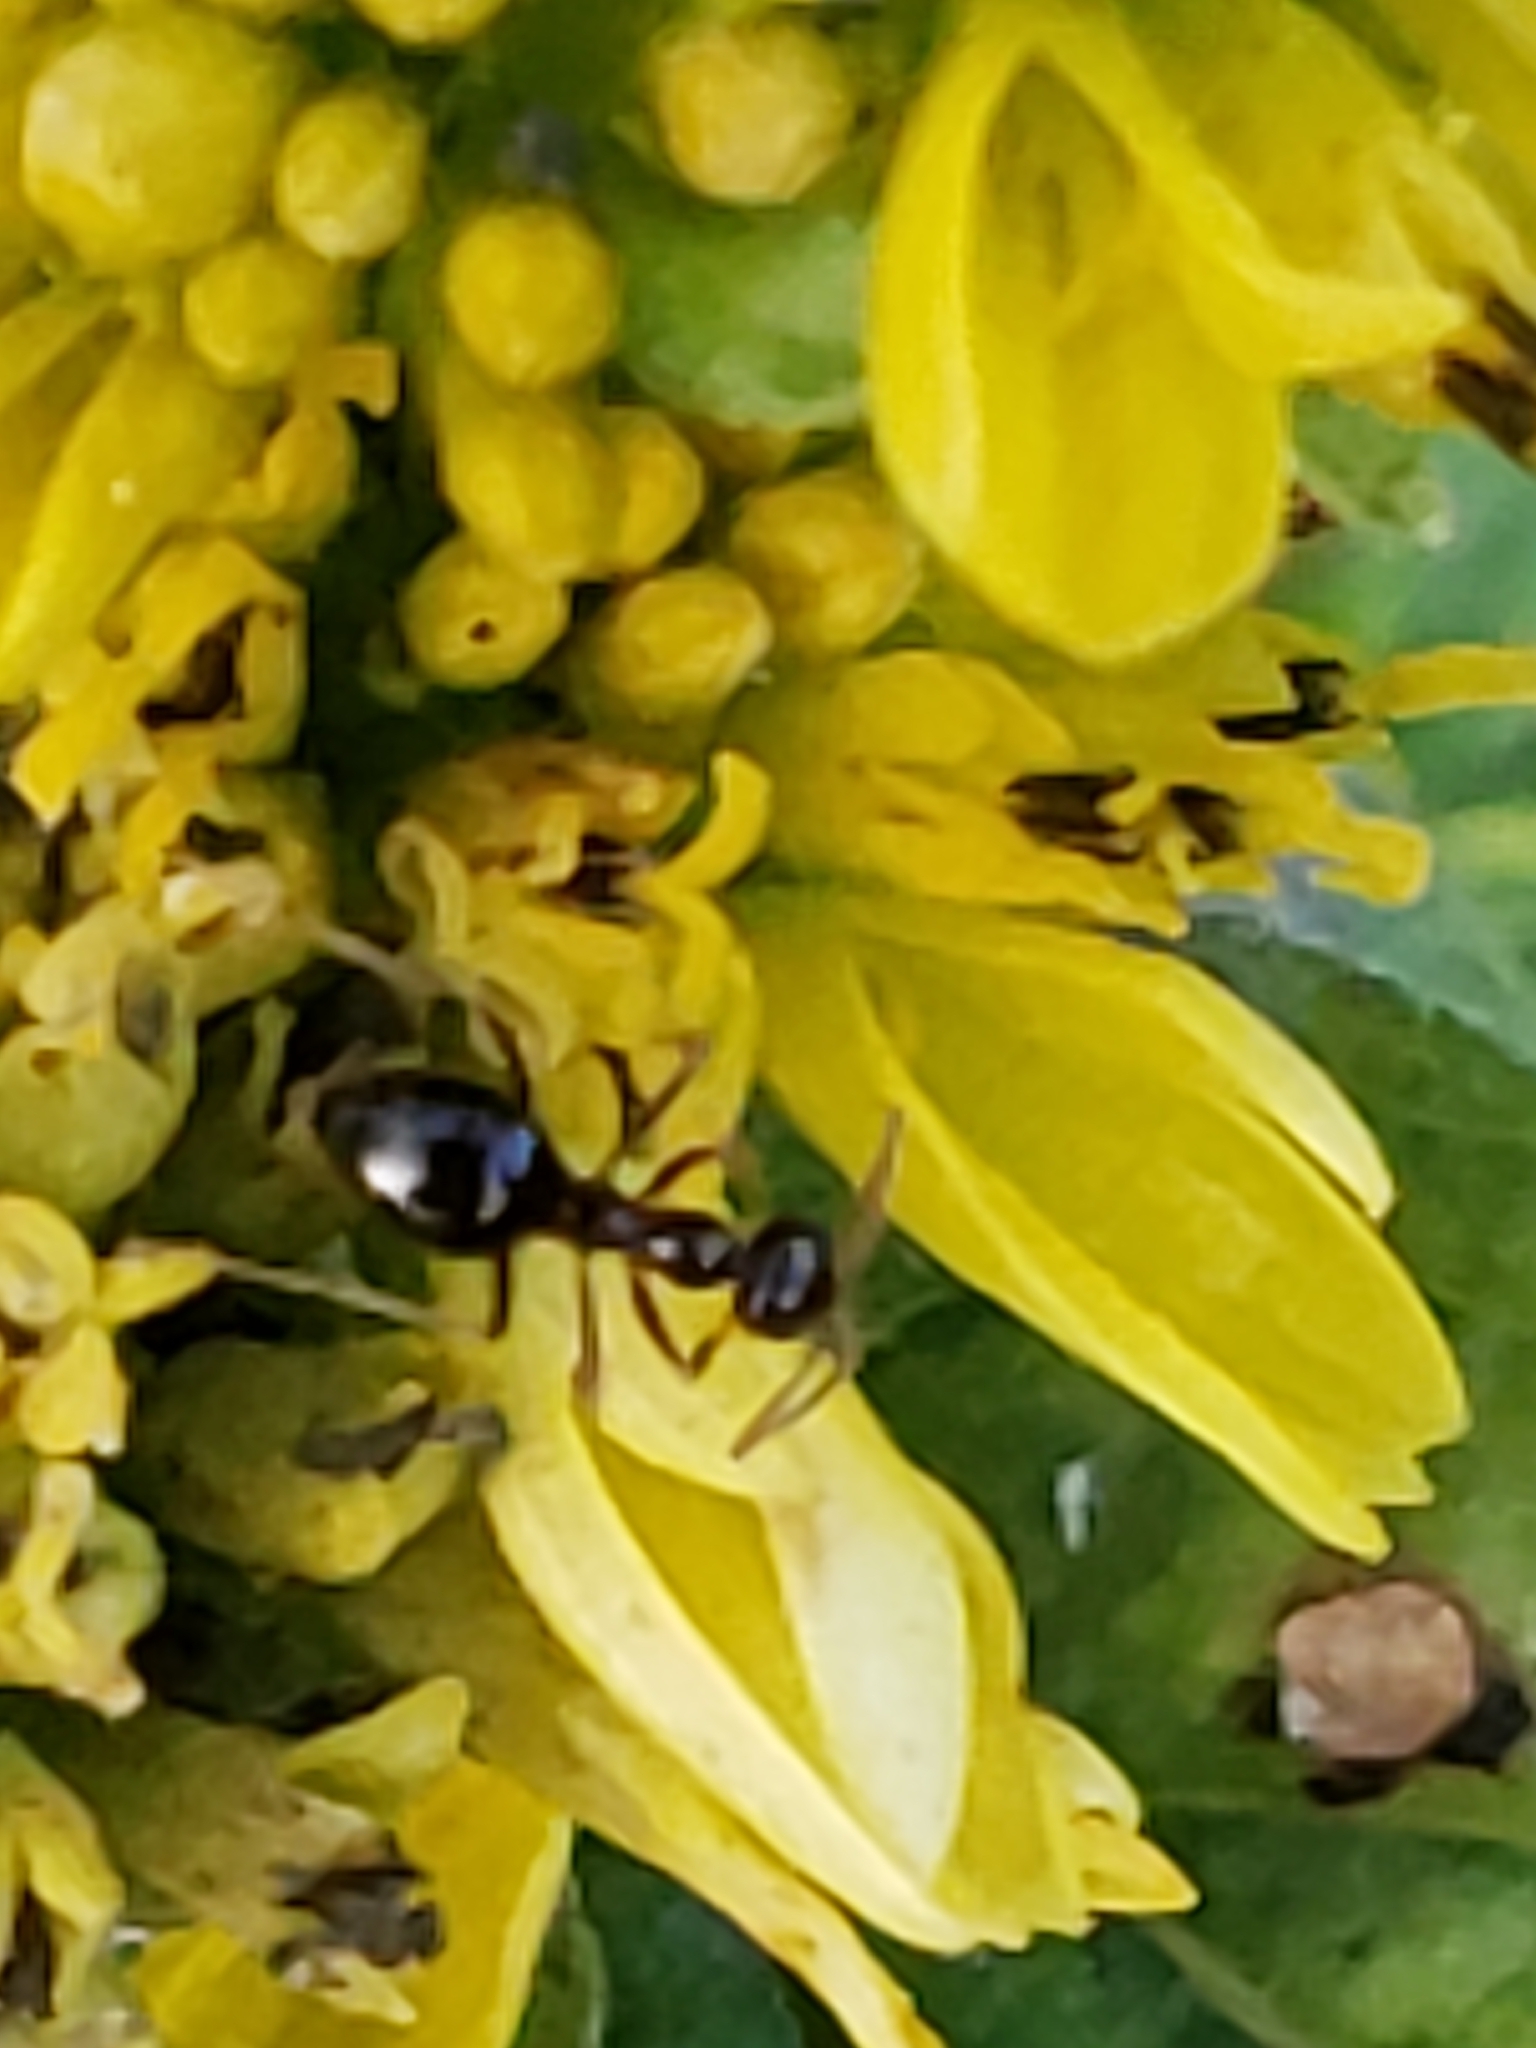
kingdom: Animalia
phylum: Arthropoda
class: Insecta
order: Hymenoptera
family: Formicidae
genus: Prenolepis
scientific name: Prenolepis imparis
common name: Small honey ant
